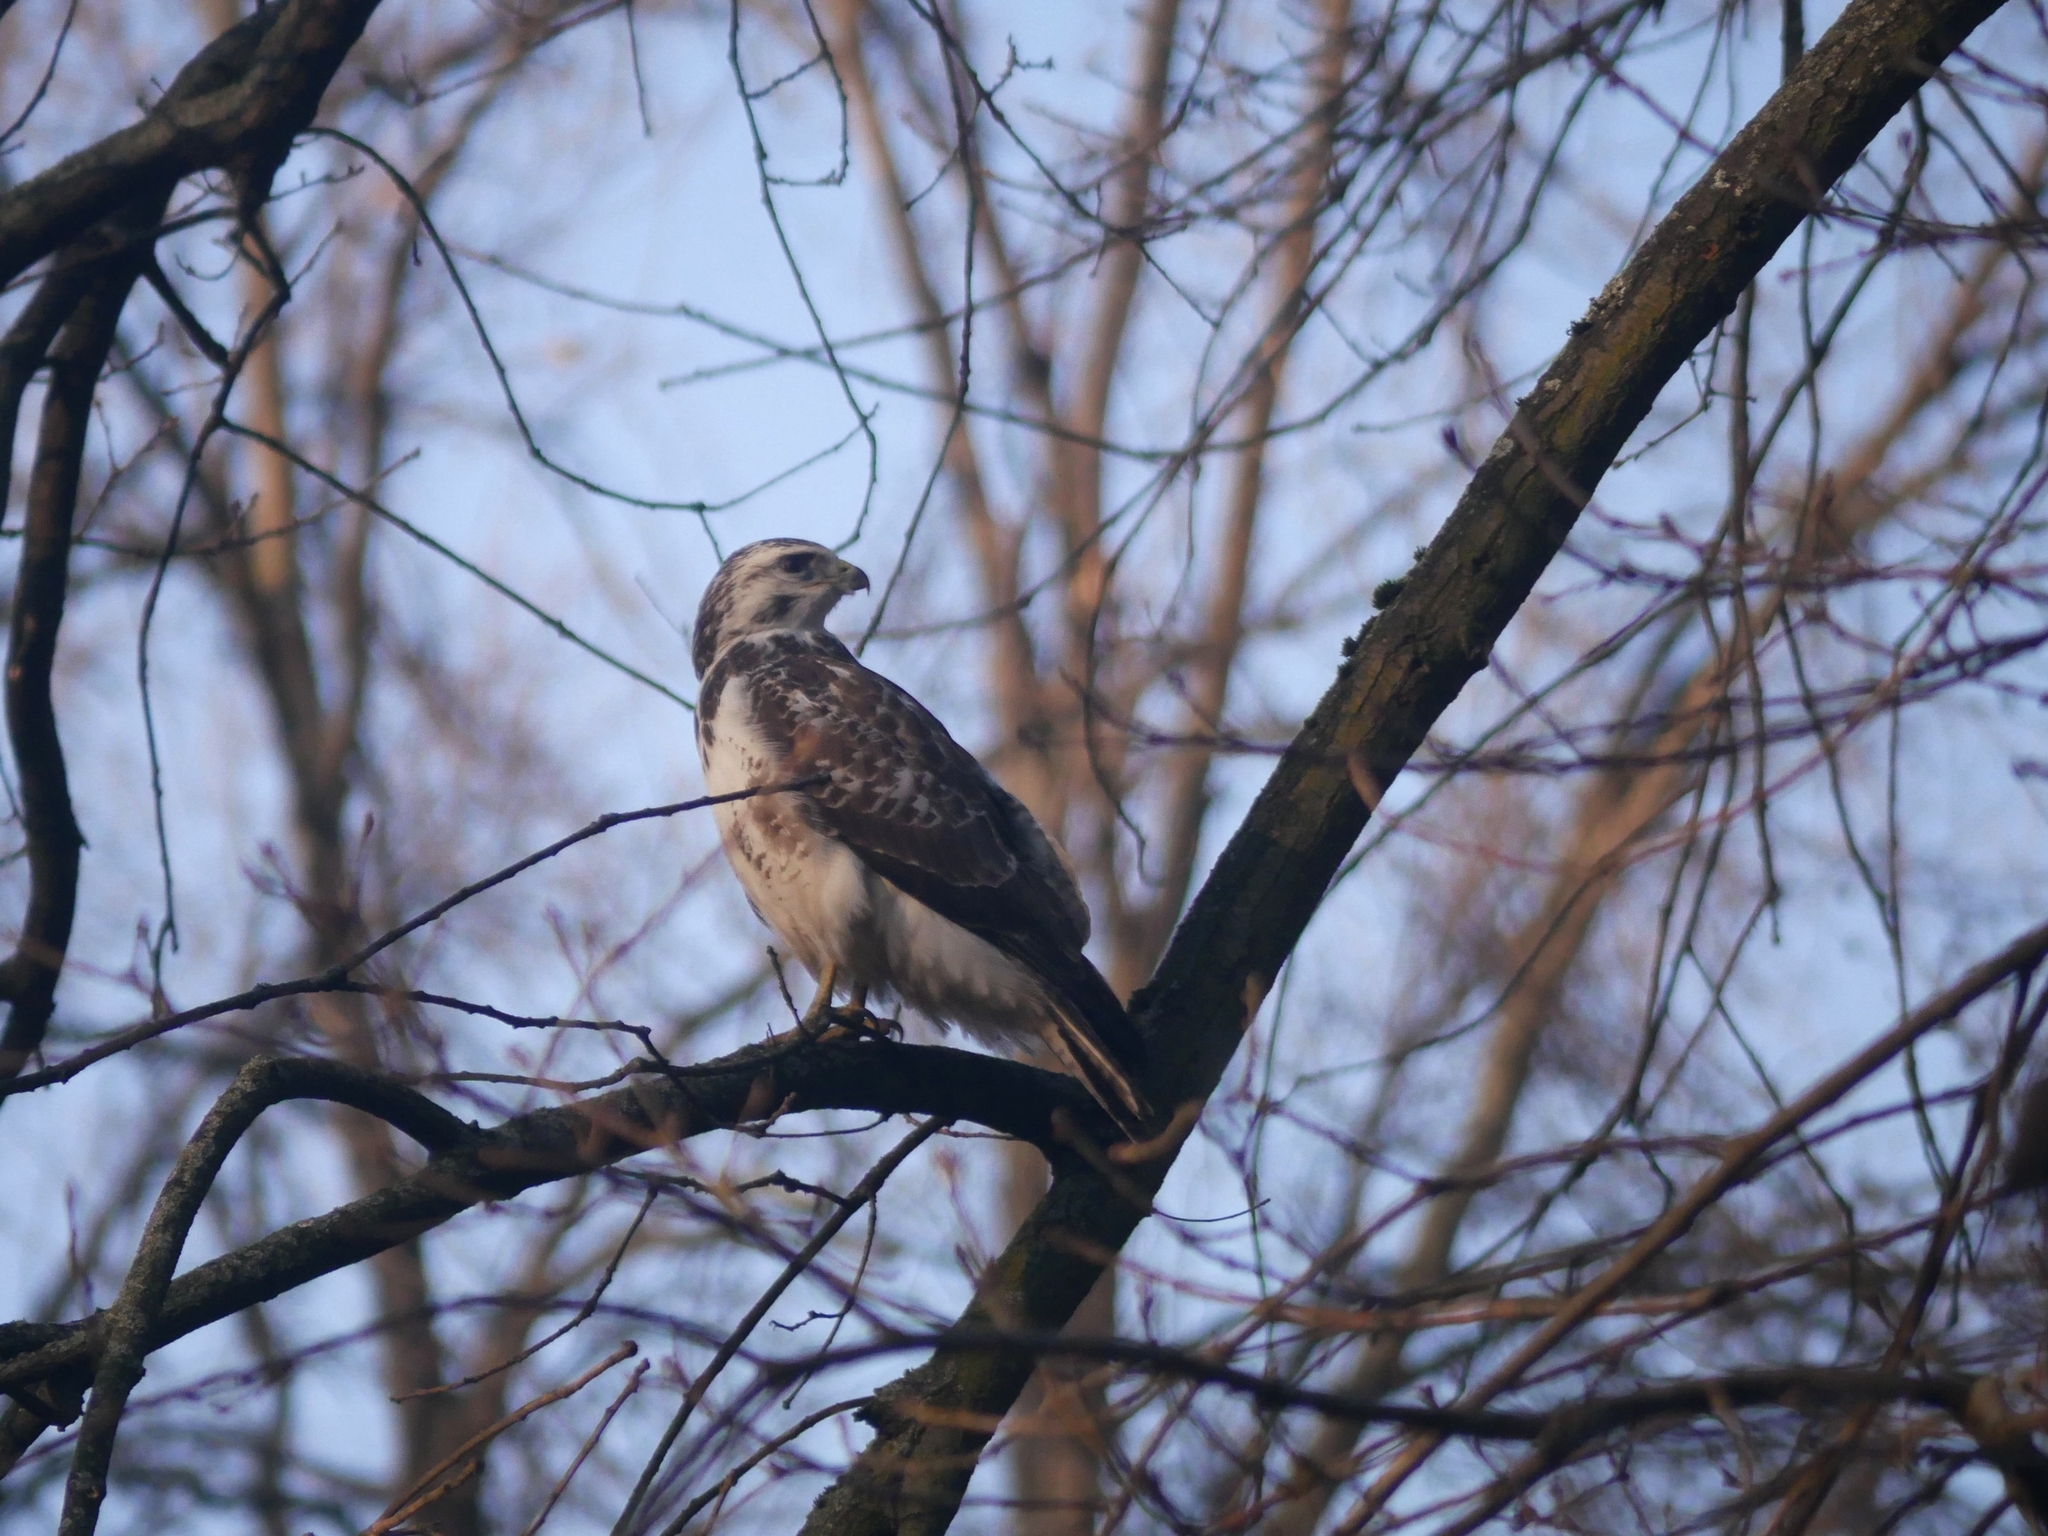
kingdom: Animalia
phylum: Chordata
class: Aves
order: Accipitriformes
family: Accipitridae
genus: Buteo
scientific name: Buteo buteo
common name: Common buzzard
